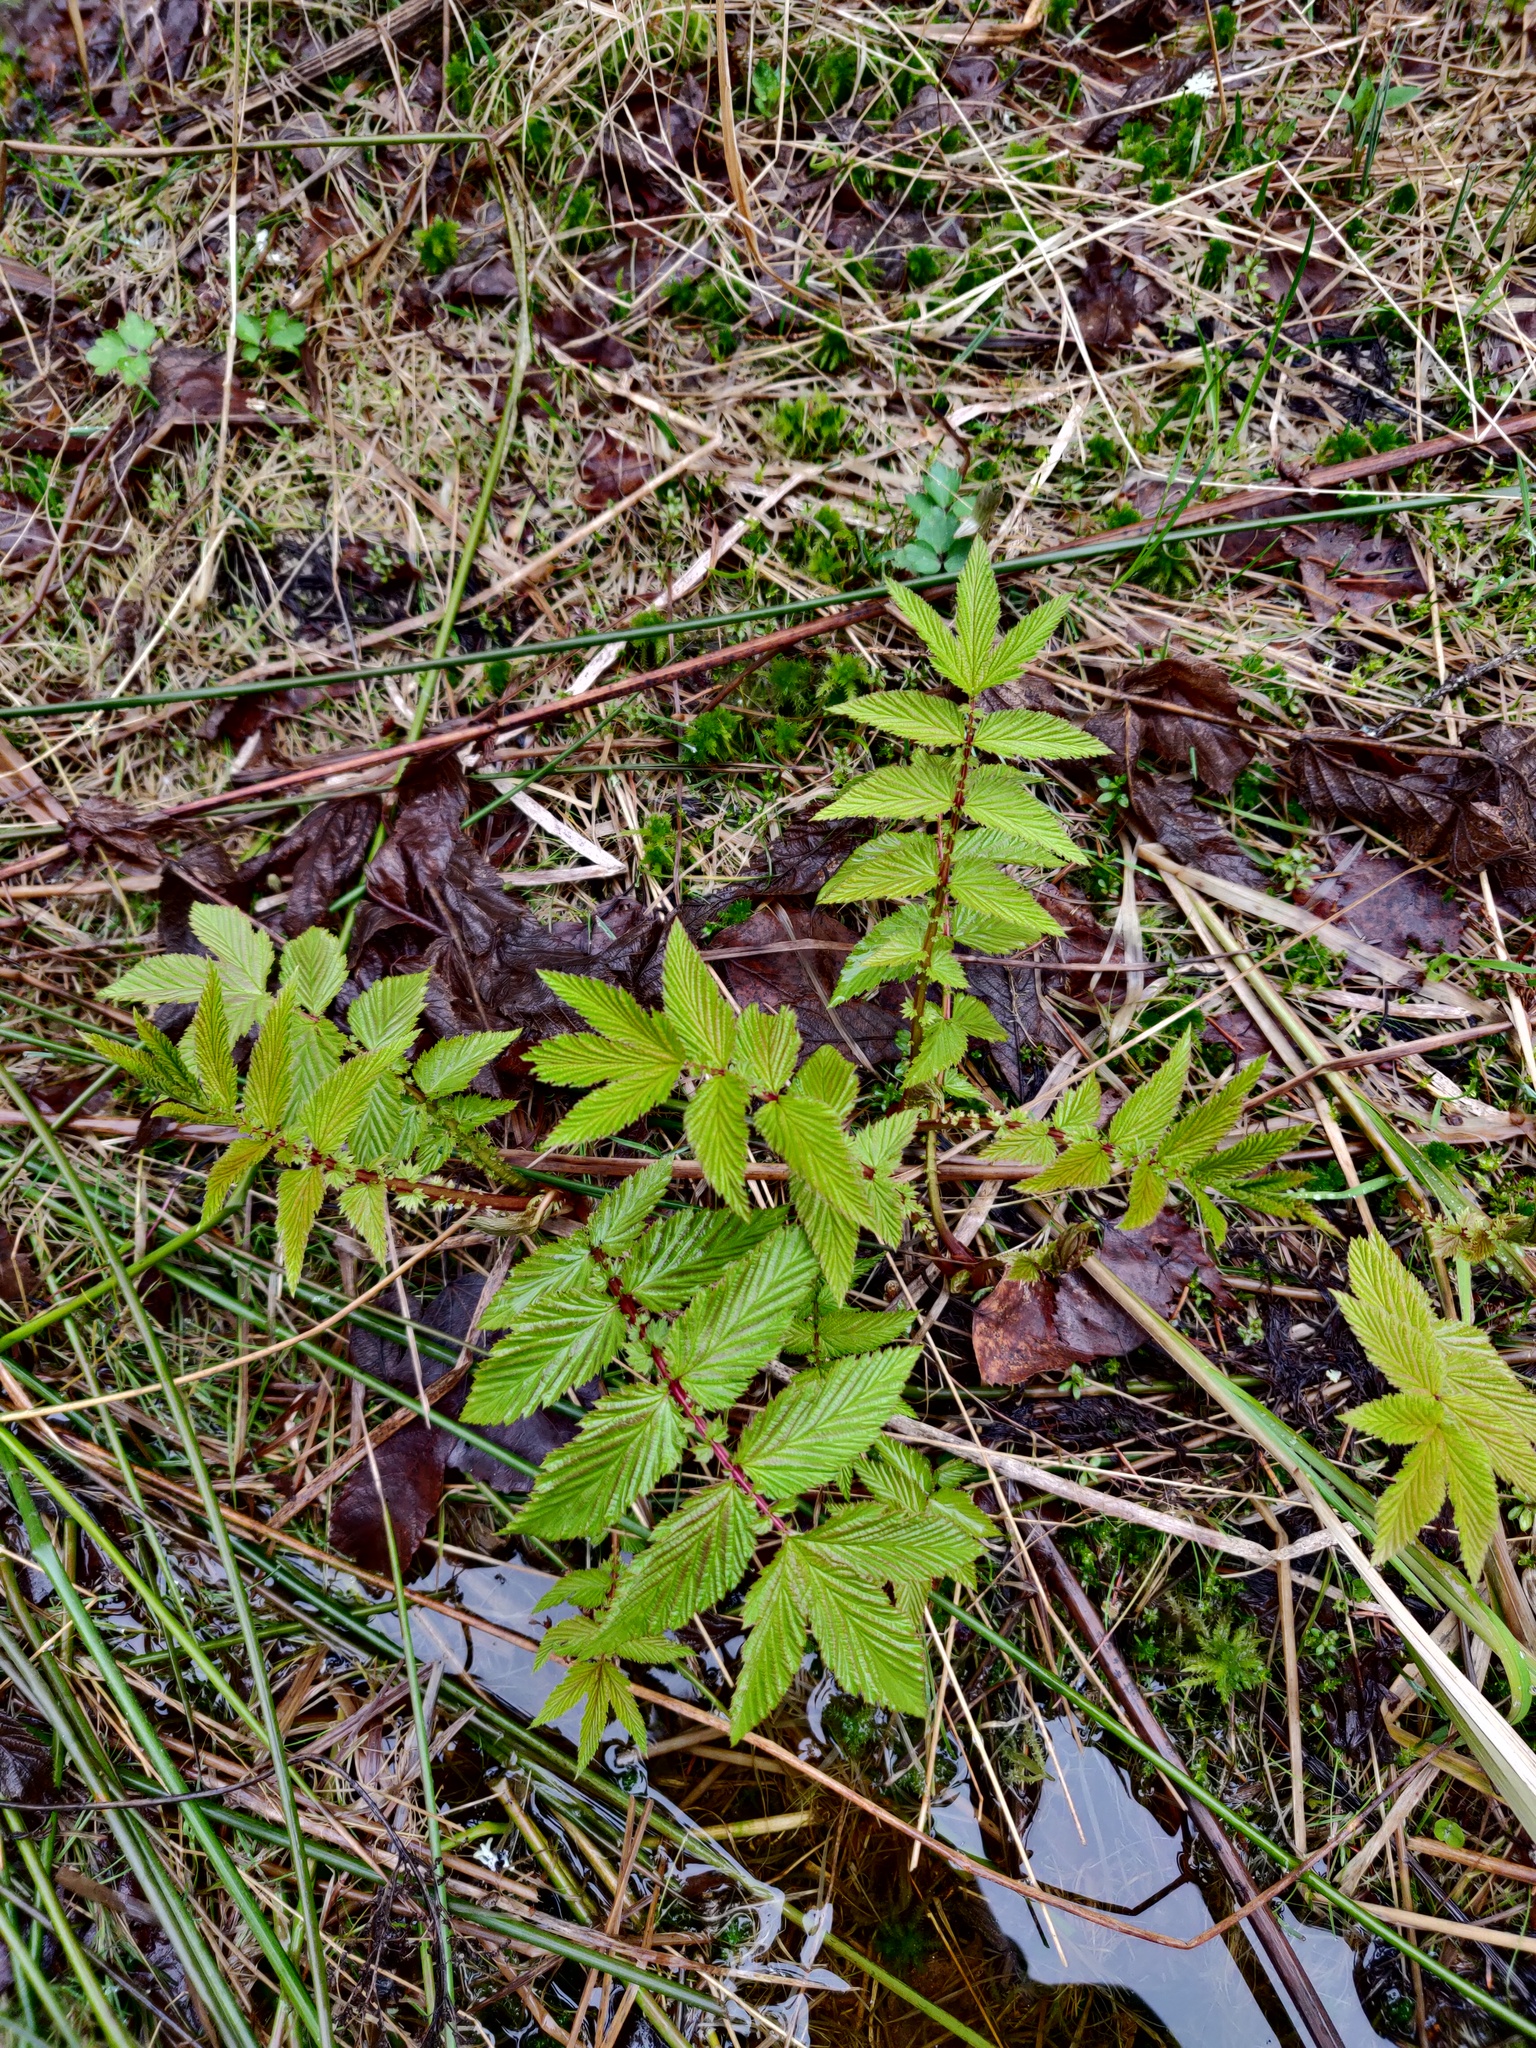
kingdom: Plantae
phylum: Tracheophyta
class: Magnoliopsida
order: Rosales
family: Rosaceae
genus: Filipendula
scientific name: Filipendula ulmaria
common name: Meadowsweet
